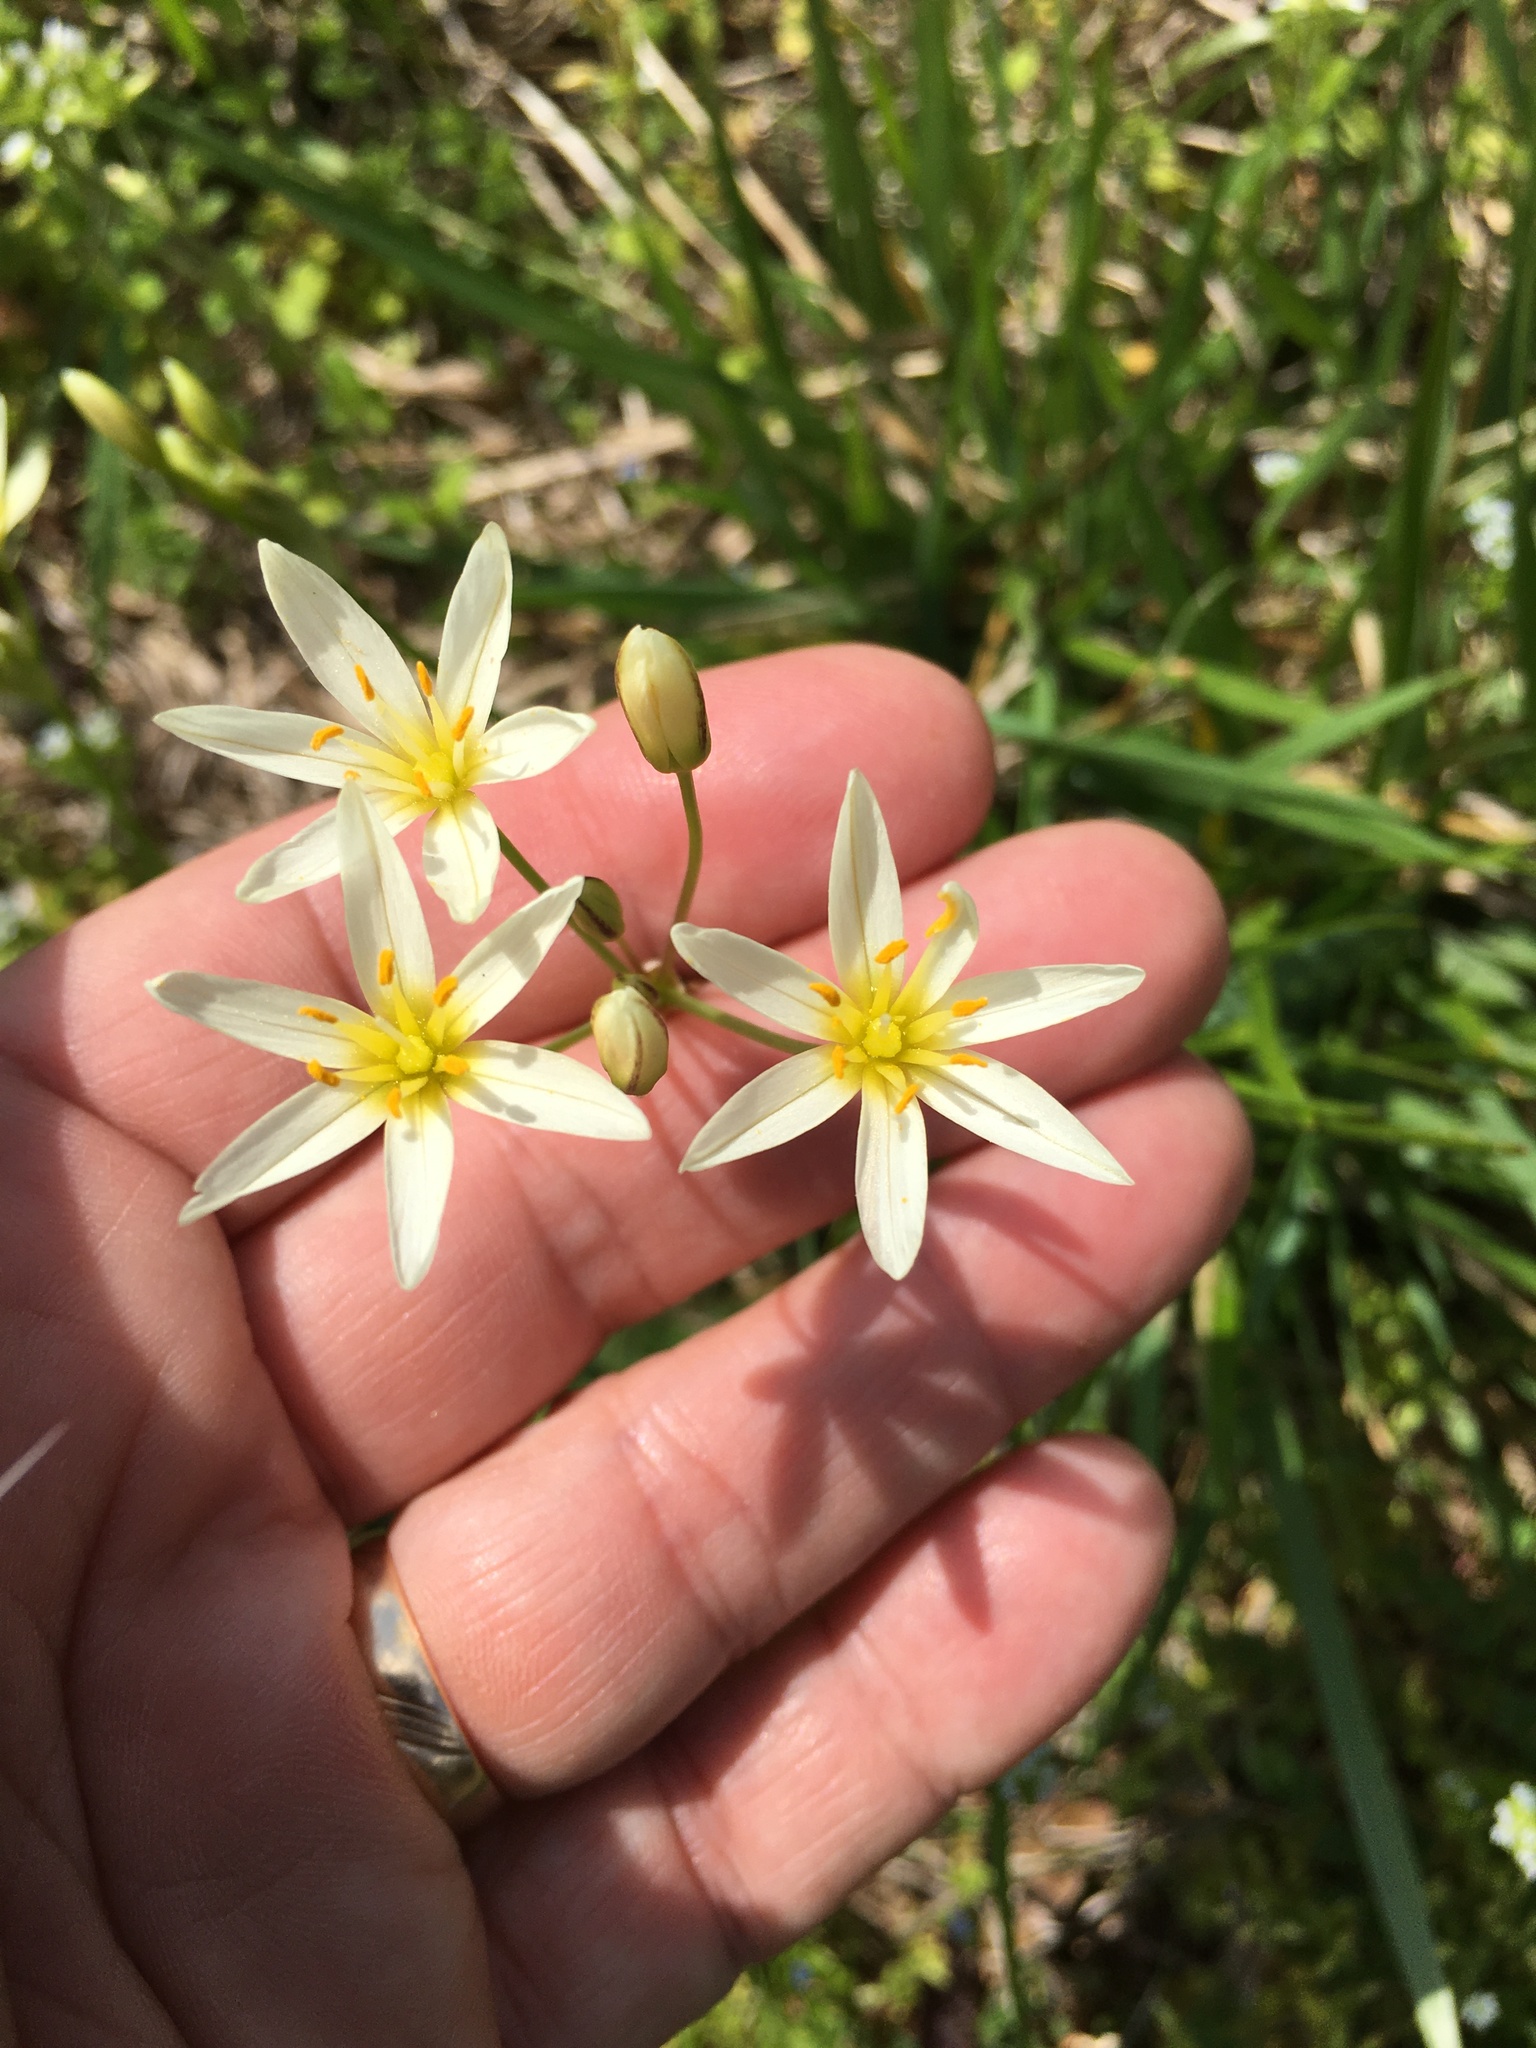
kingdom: Plantae
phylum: Tracheophyta
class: Liliopsida
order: Asparagales
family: Amaryllidaceae
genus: Nothoscordum
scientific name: Nothoscordum bivalve
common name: Crow-poison
